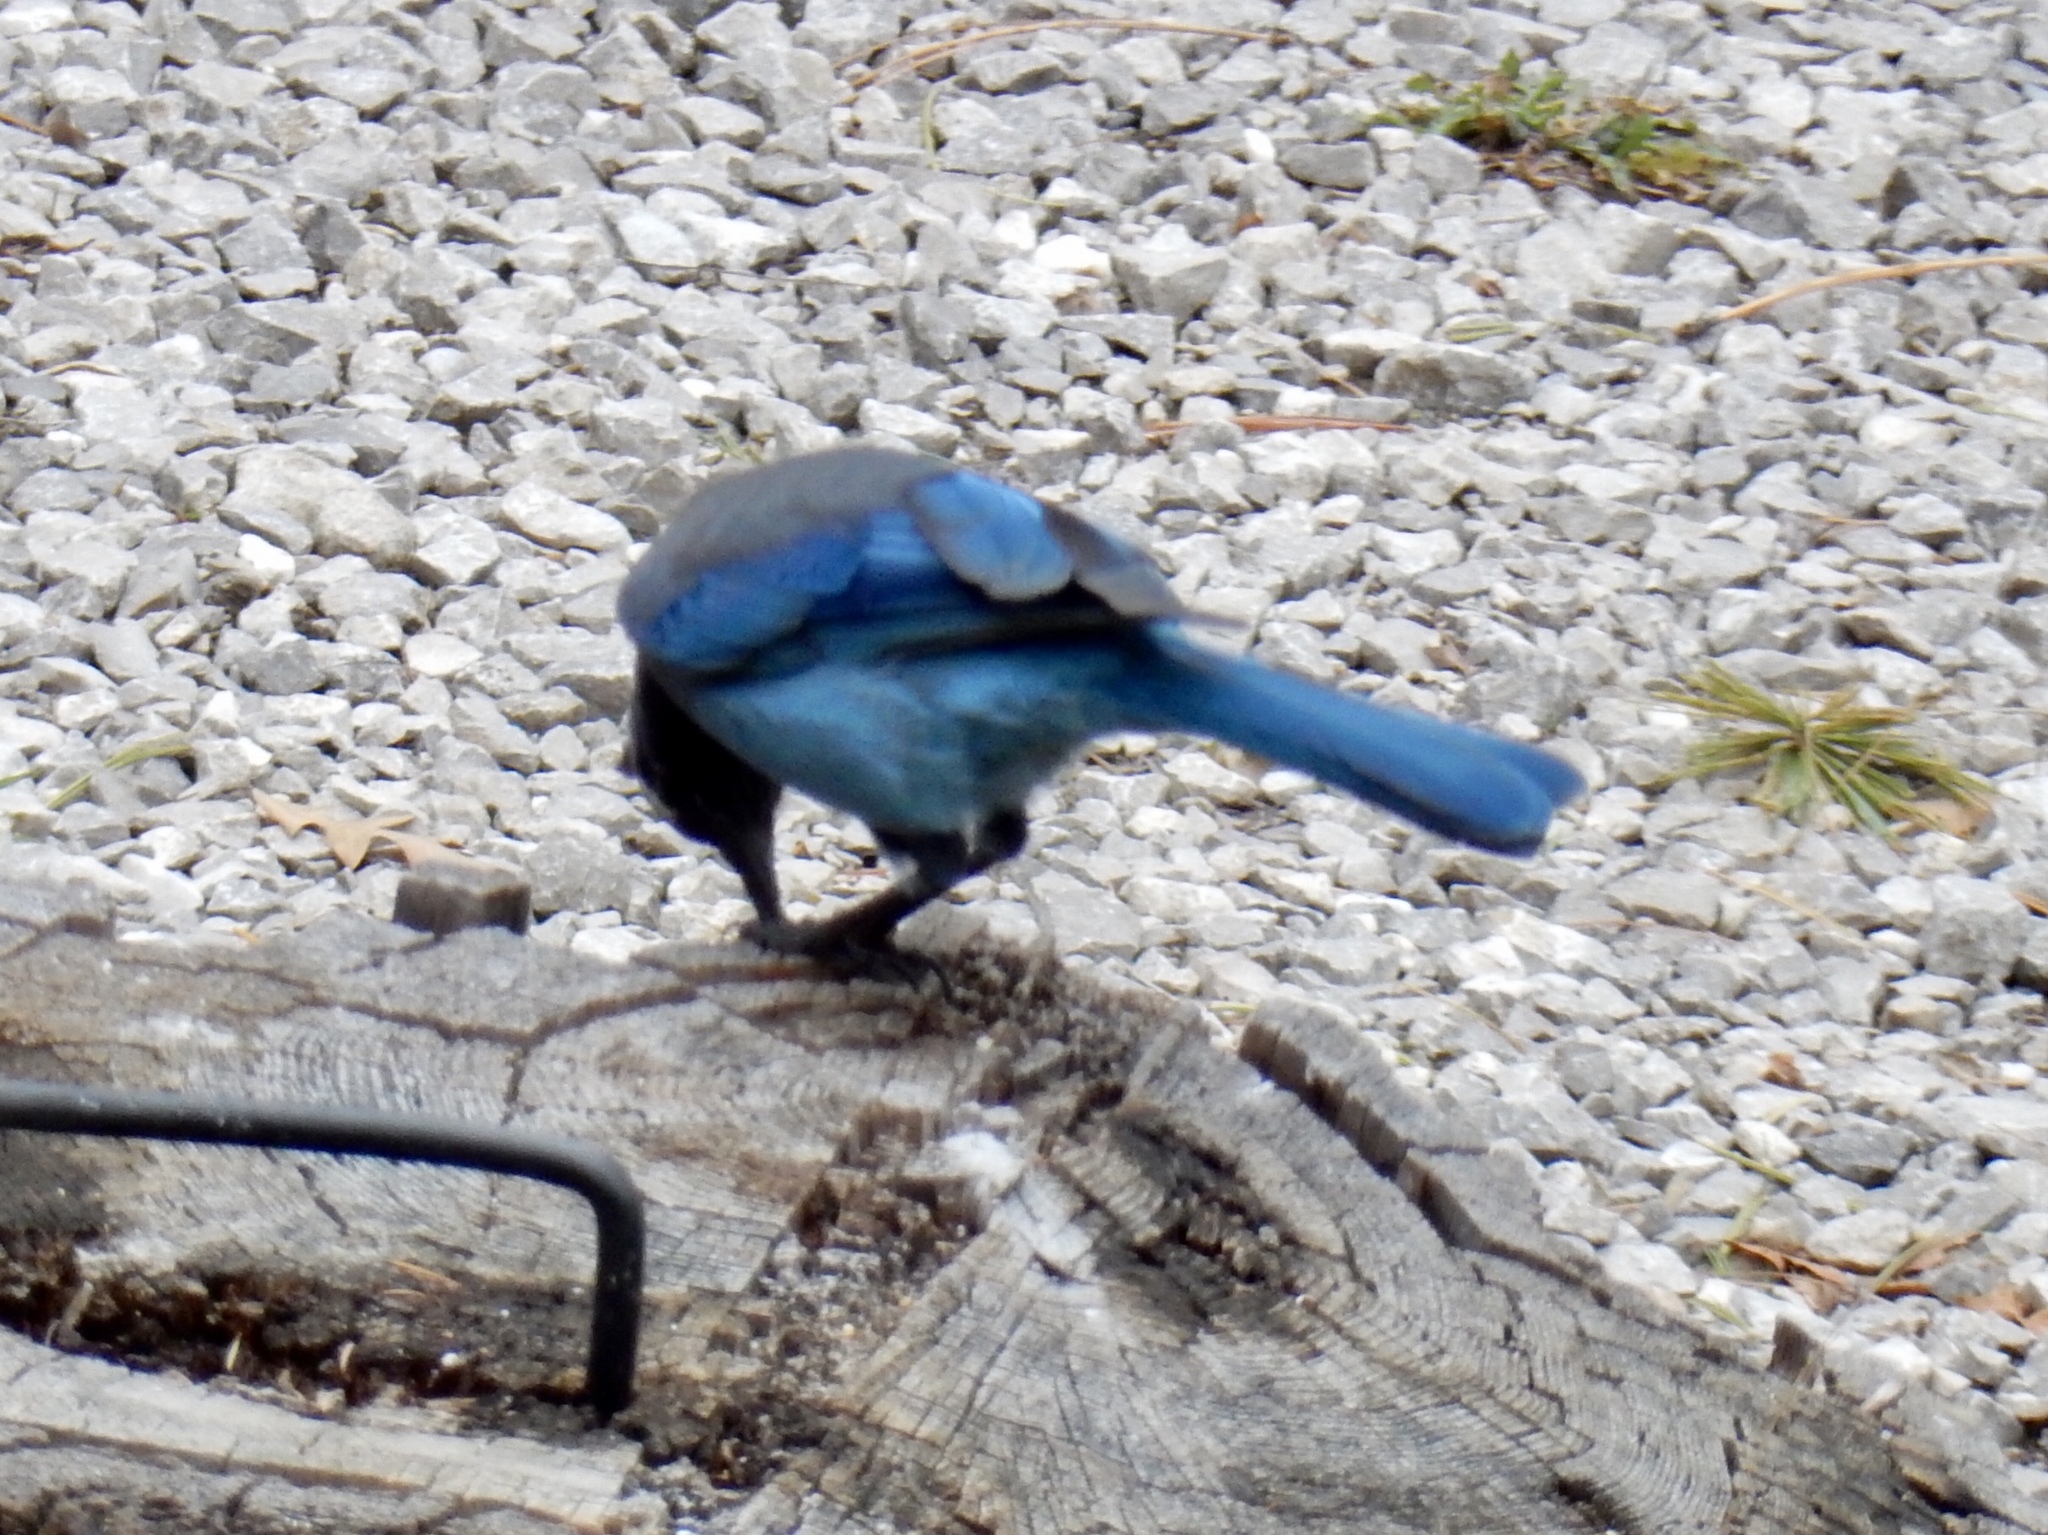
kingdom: Animalia
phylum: Chordata
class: Aves
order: Passeriformes
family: Corvidae
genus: Cyanocitta
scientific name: Cyanocitta stelleri
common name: Steller's jay
